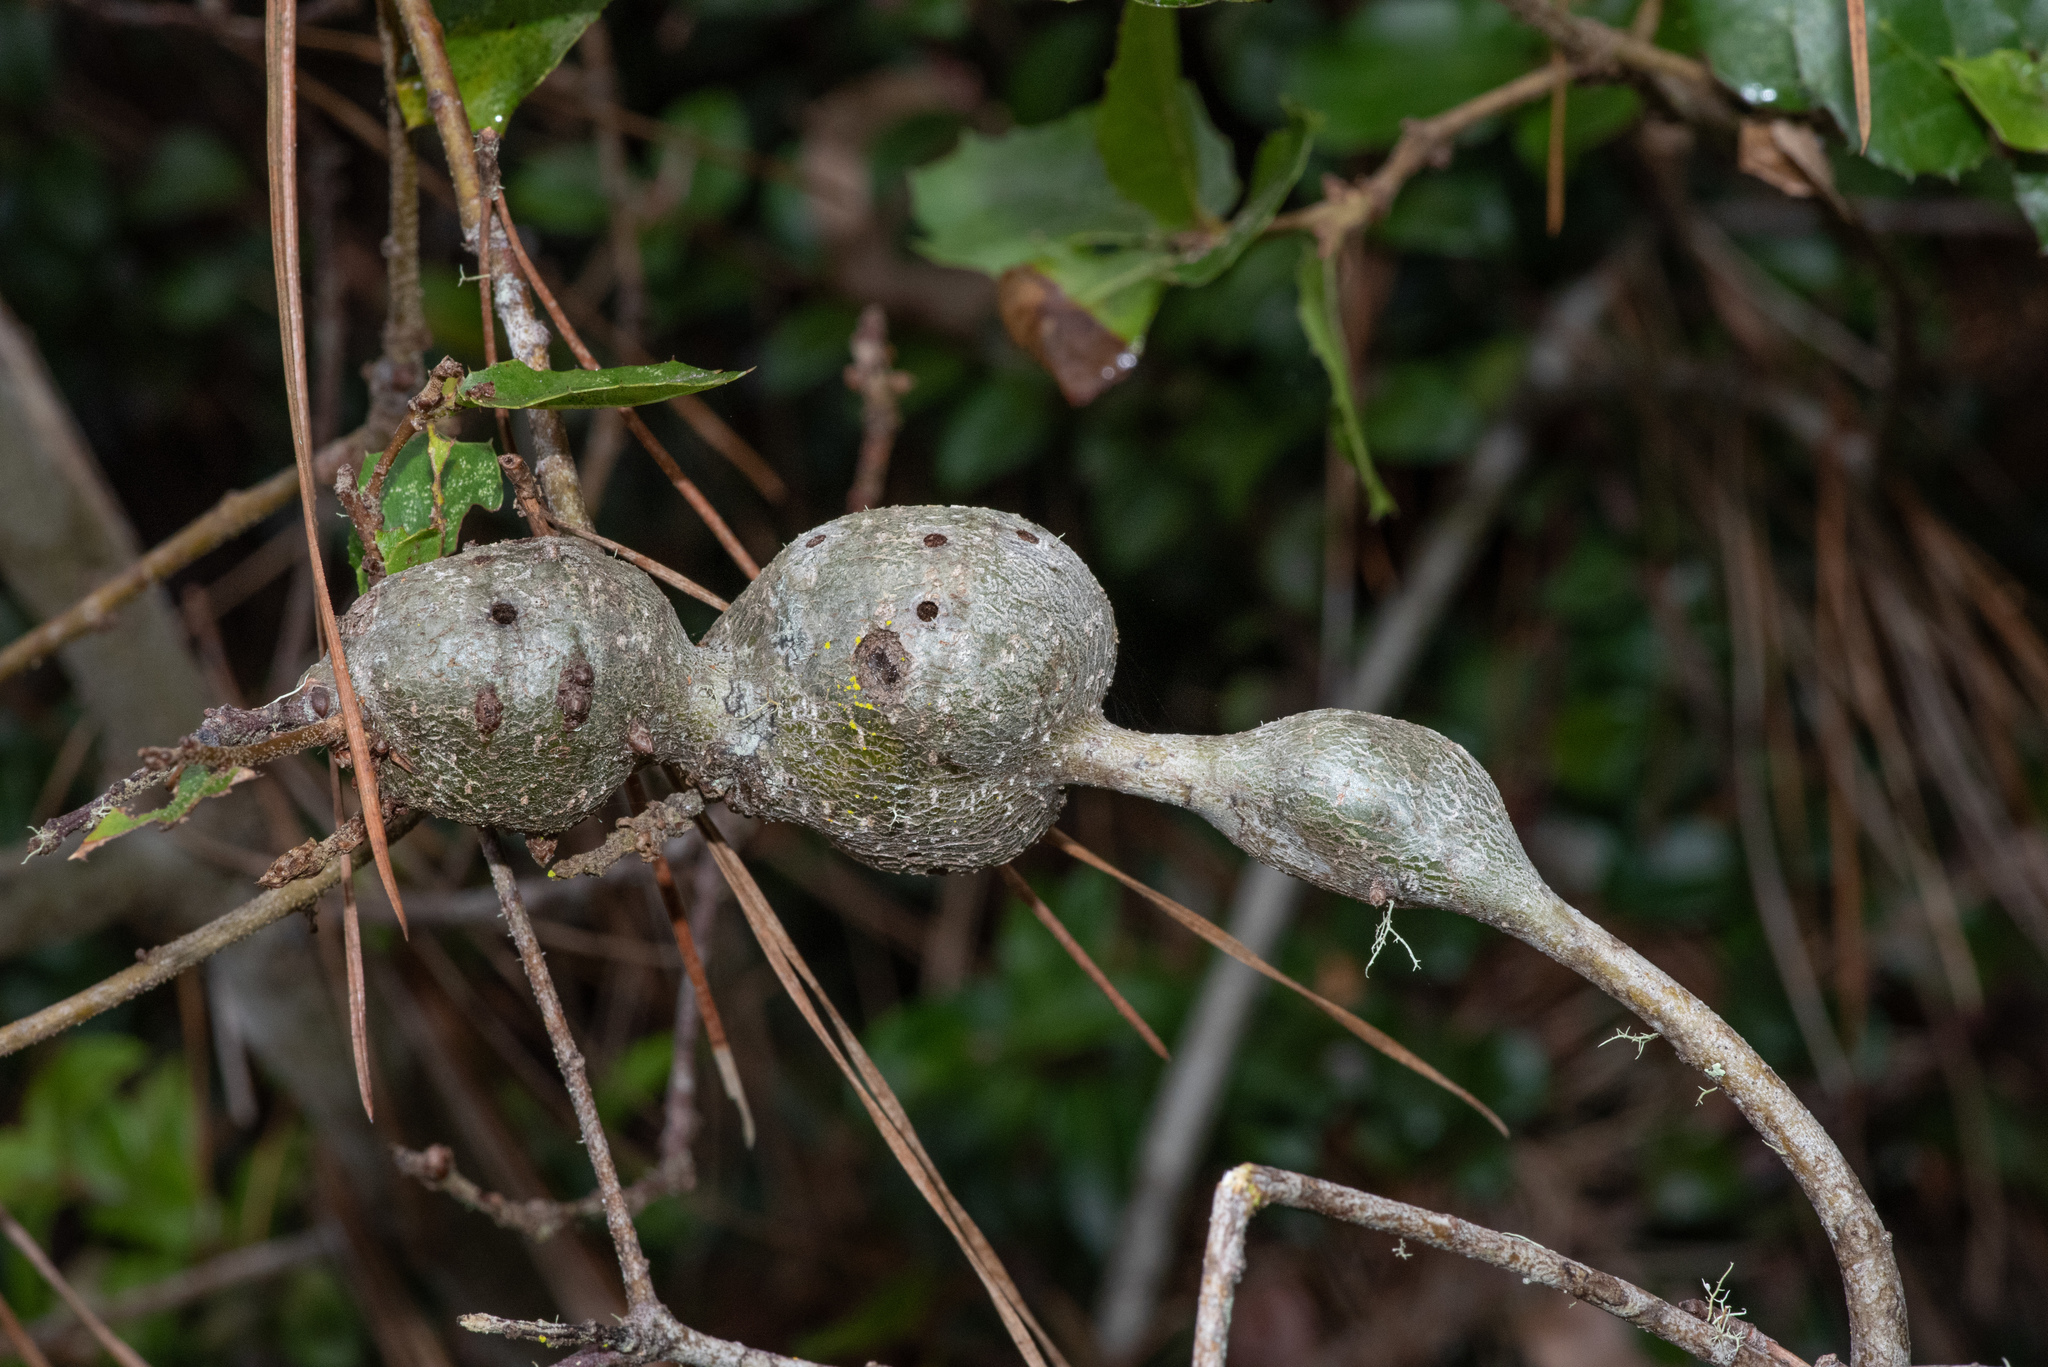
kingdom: Animalia
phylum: Arthropoda
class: Insecta
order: Hymenoptera
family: Cynipidae
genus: Callirhytis
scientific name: Callirhytis
